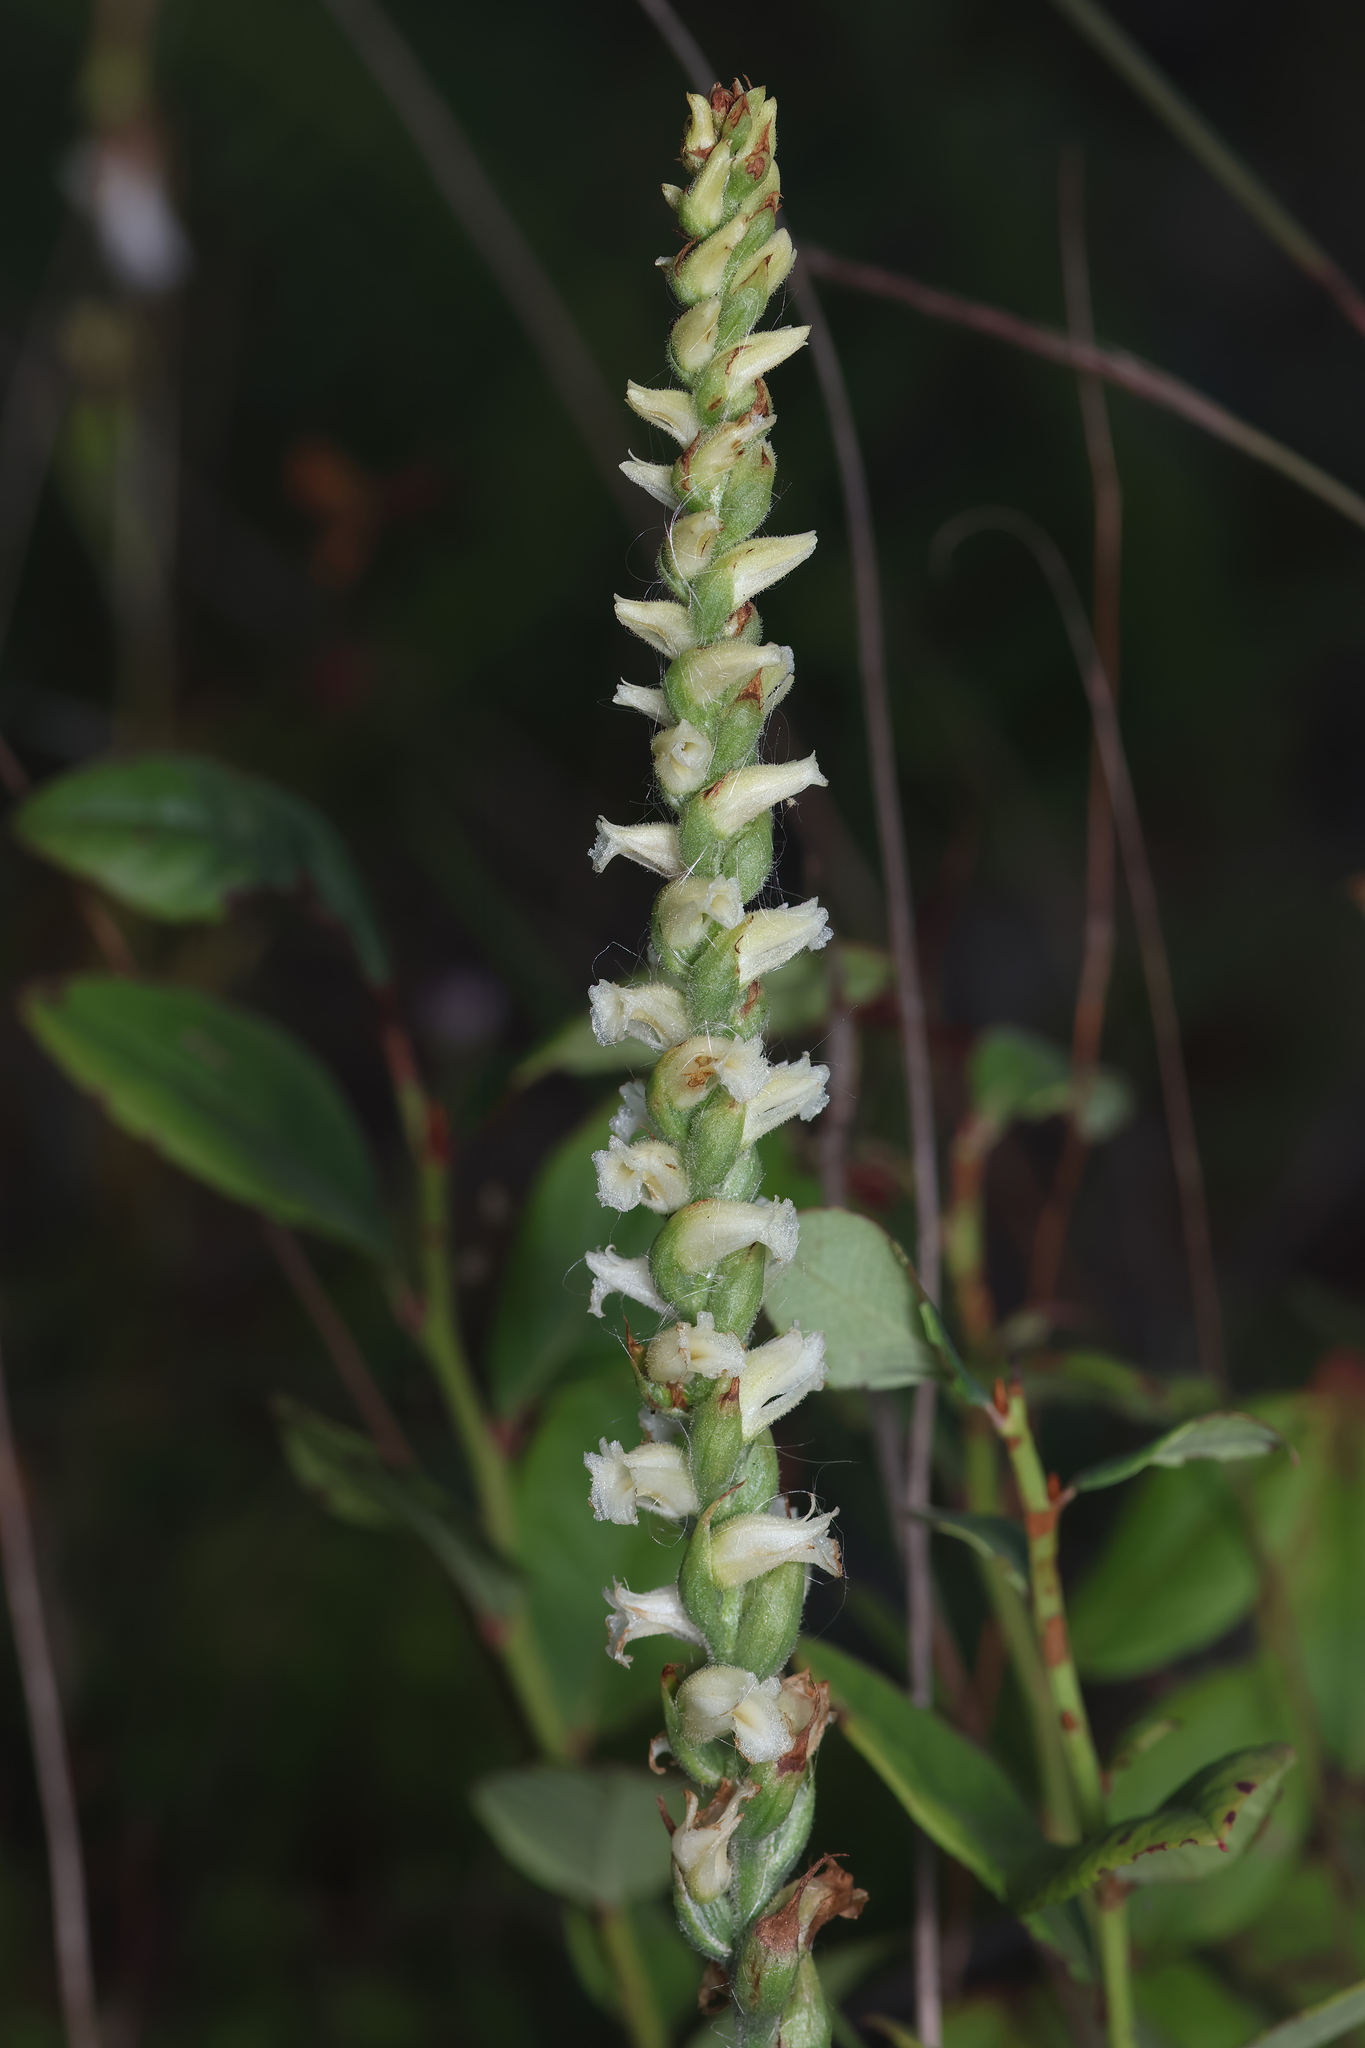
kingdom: Plantae
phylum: Tracheophyta
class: Liliopsida
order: Asparagales
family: Orchidaceae
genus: Spiranthes
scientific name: Spiranthes ochroleuca
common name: Yellow ladies'-tresses
